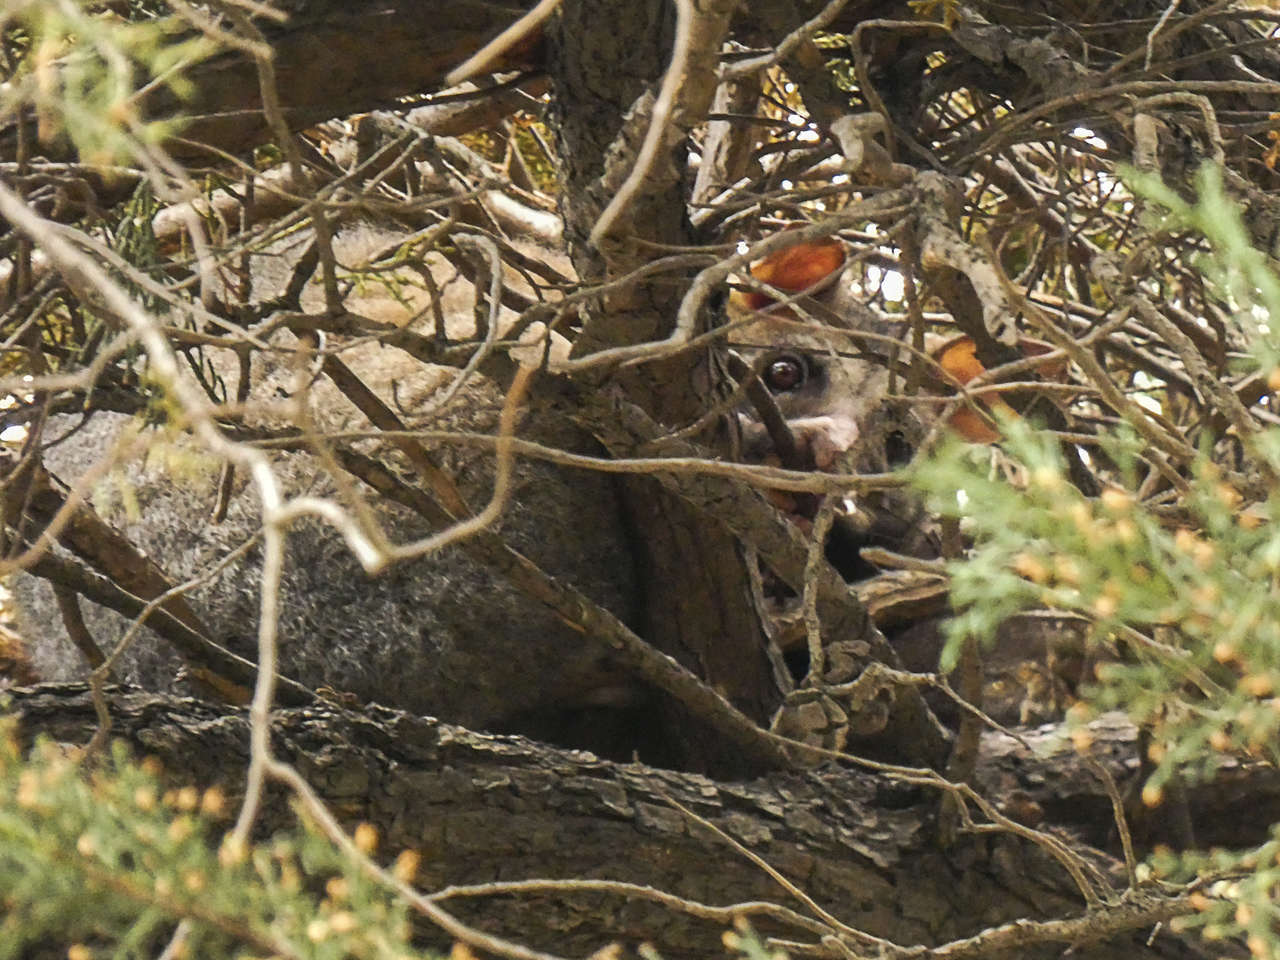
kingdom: Animalia
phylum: Chordata
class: Mammalia
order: Diprotodontia
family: Phalangeridae
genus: Trichosurus
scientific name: Trichosurus vulpecula
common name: Common brushtail
